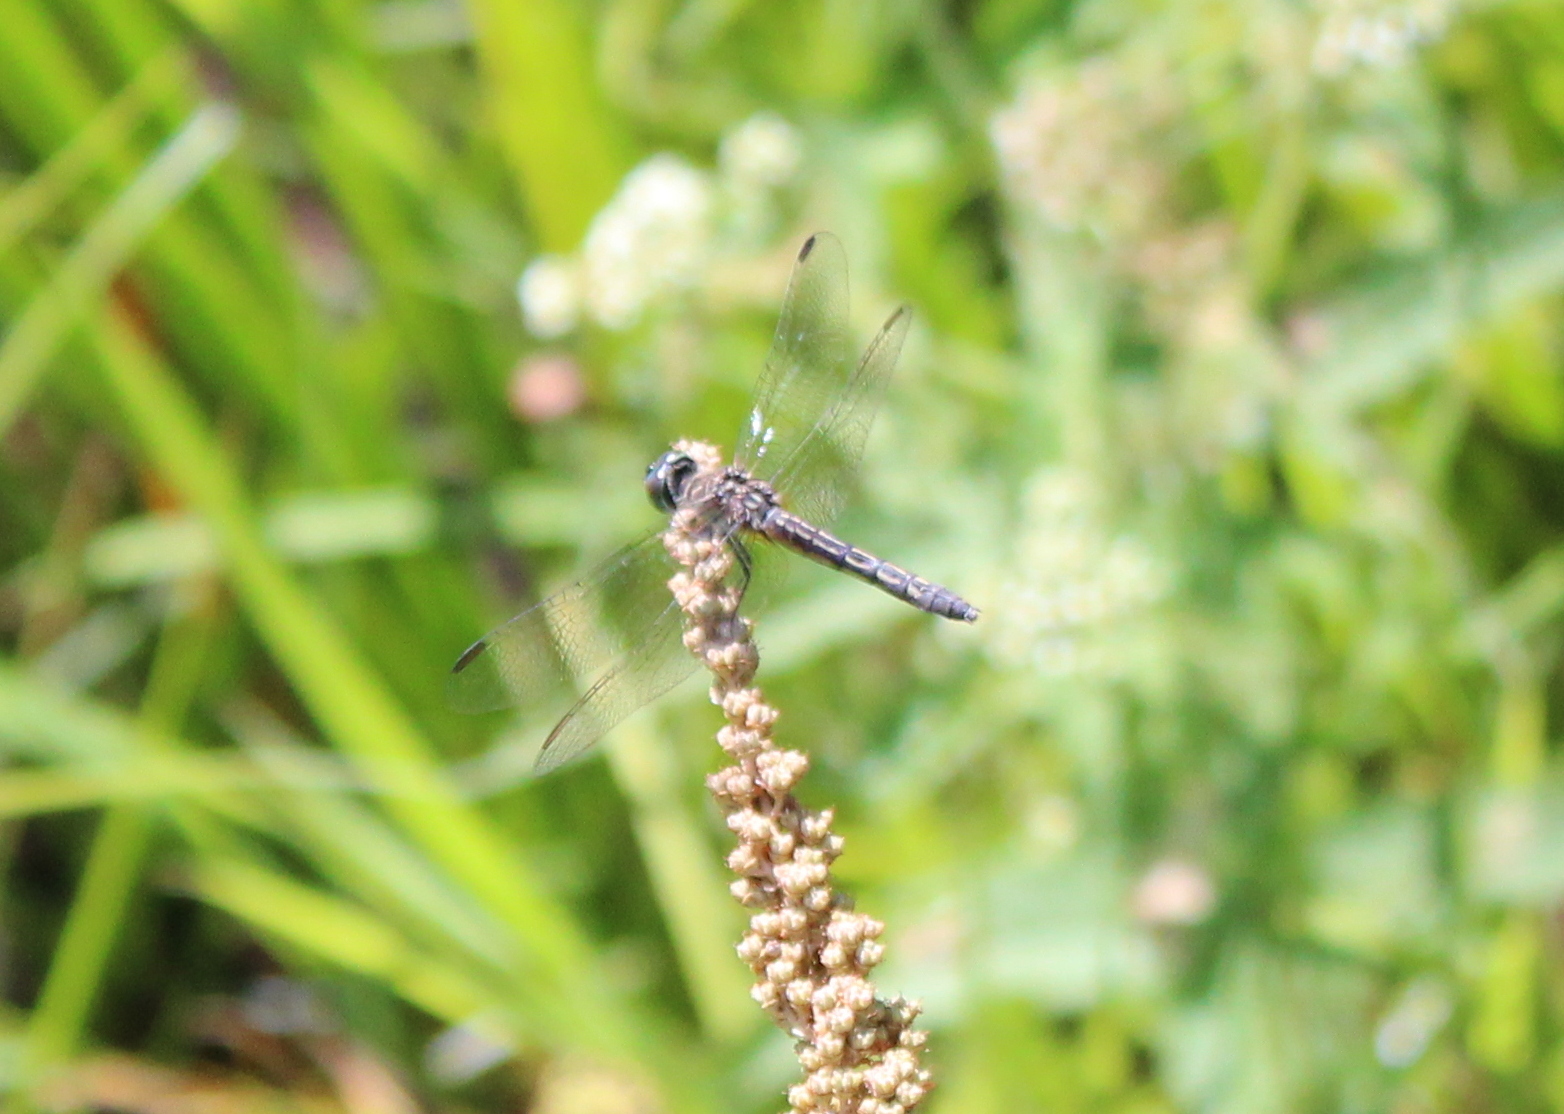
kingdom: Animalia
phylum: Arthropoda
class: Insecta
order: Odonata
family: Libellulidae
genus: Pachydiplax
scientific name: Pachydiplax longipennis
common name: Blue dasher
